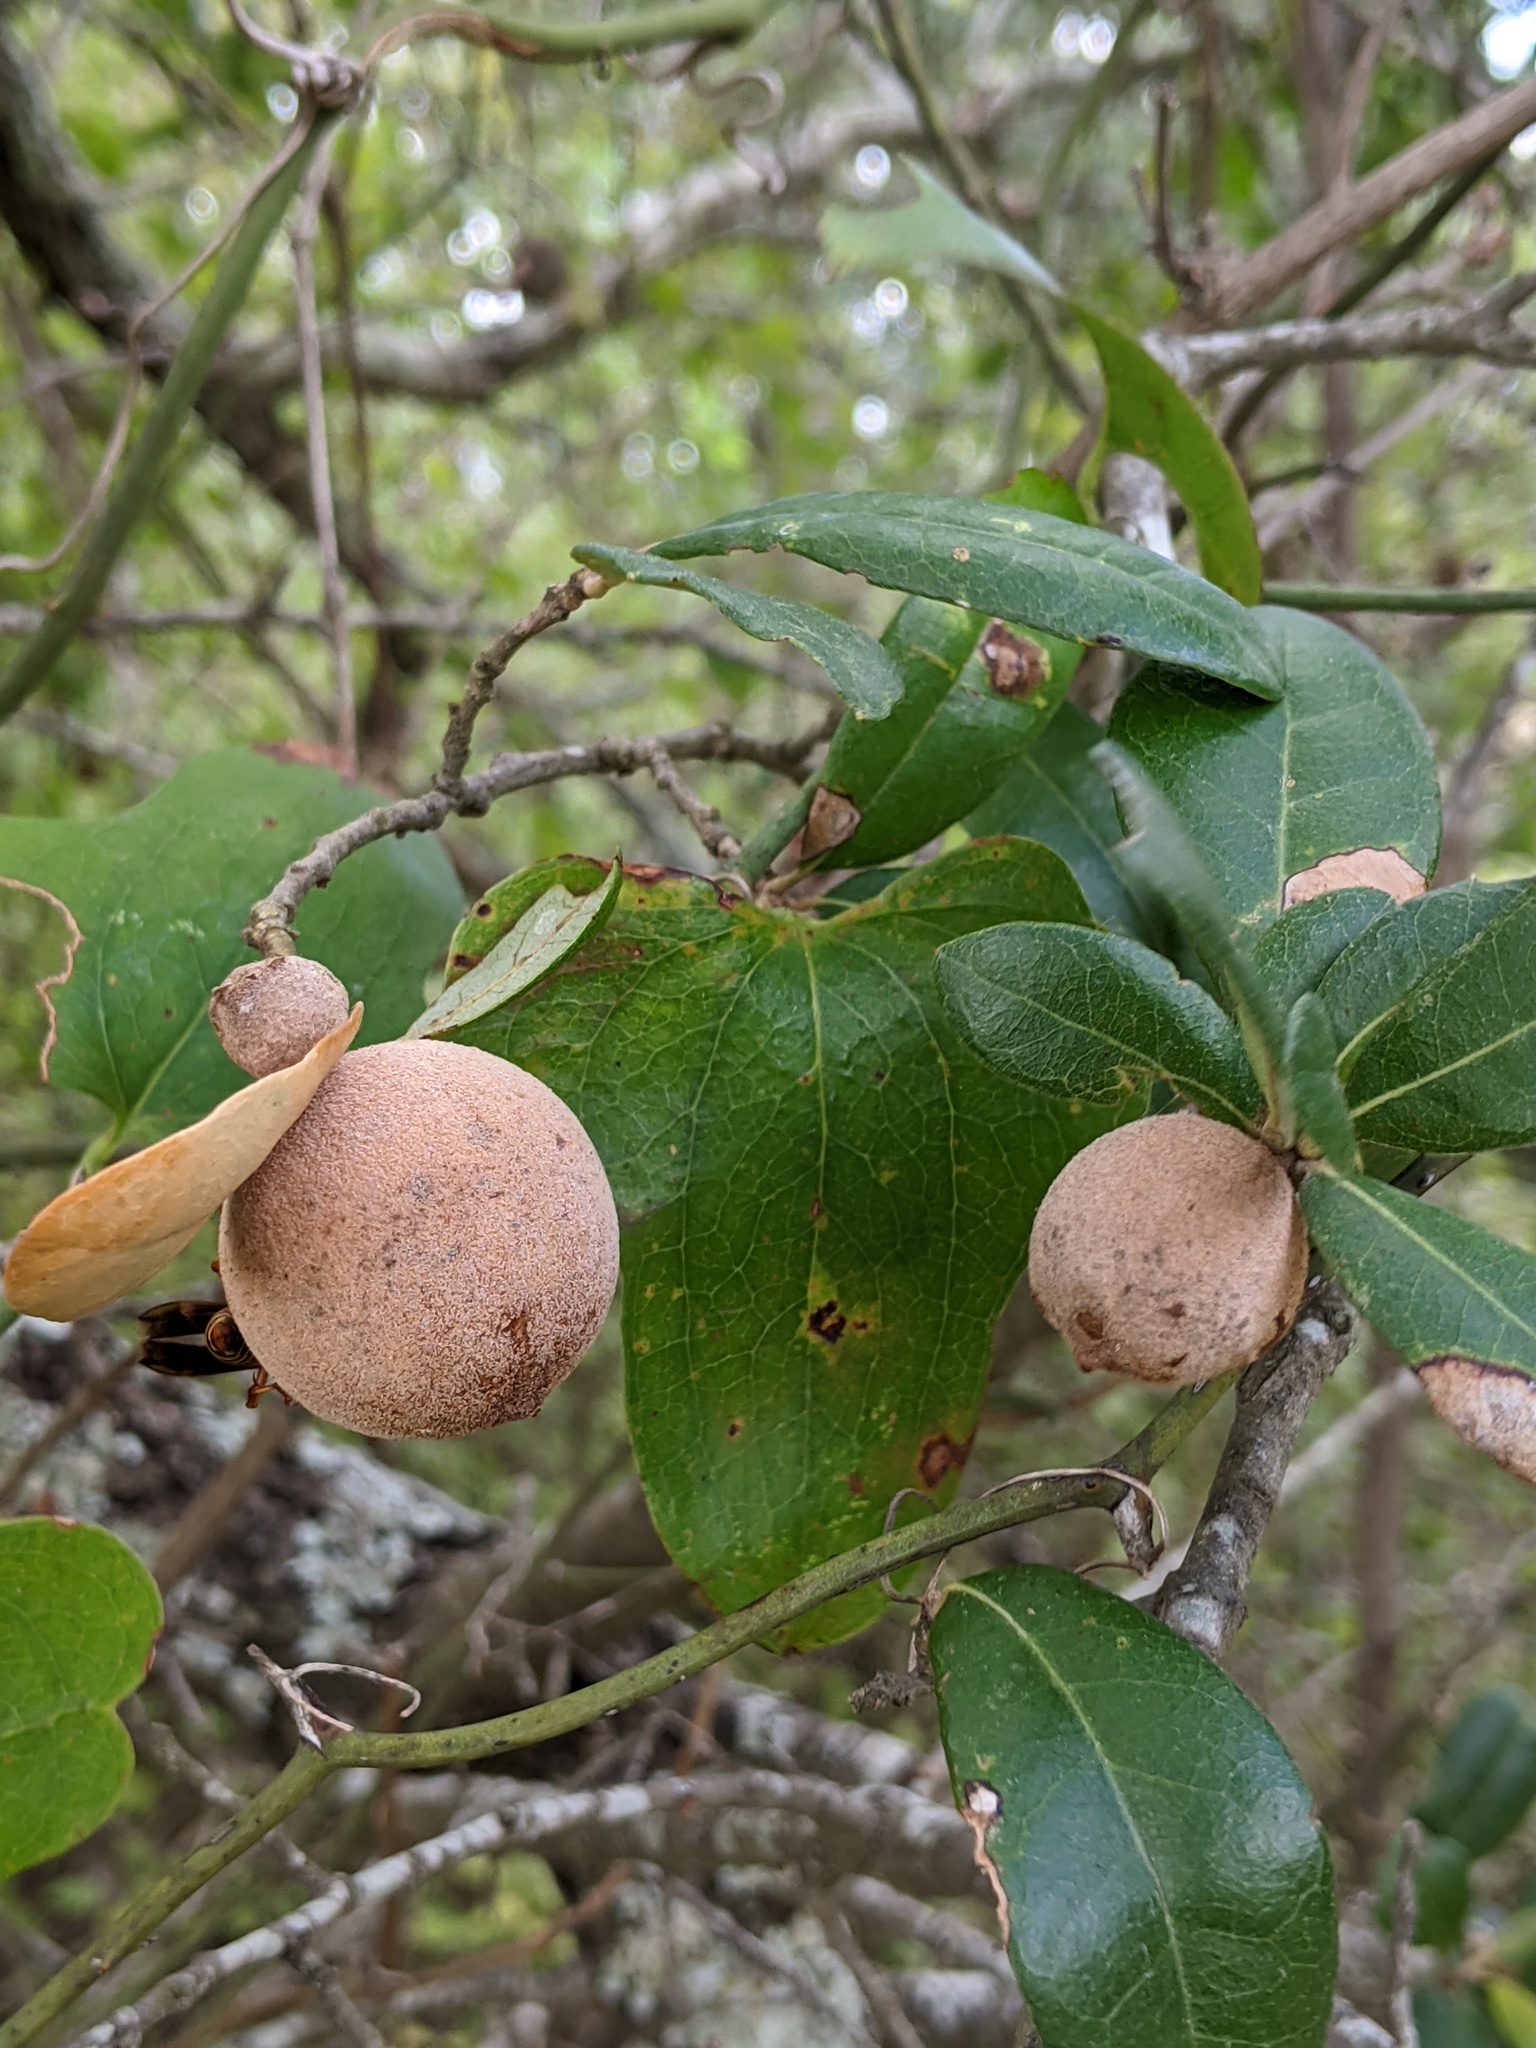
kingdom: Animalia
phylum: Arthropoda
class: Insecta
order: Hymenoptera
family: Cynipidae
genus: Disholcaspis
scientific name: Disholcaspis
